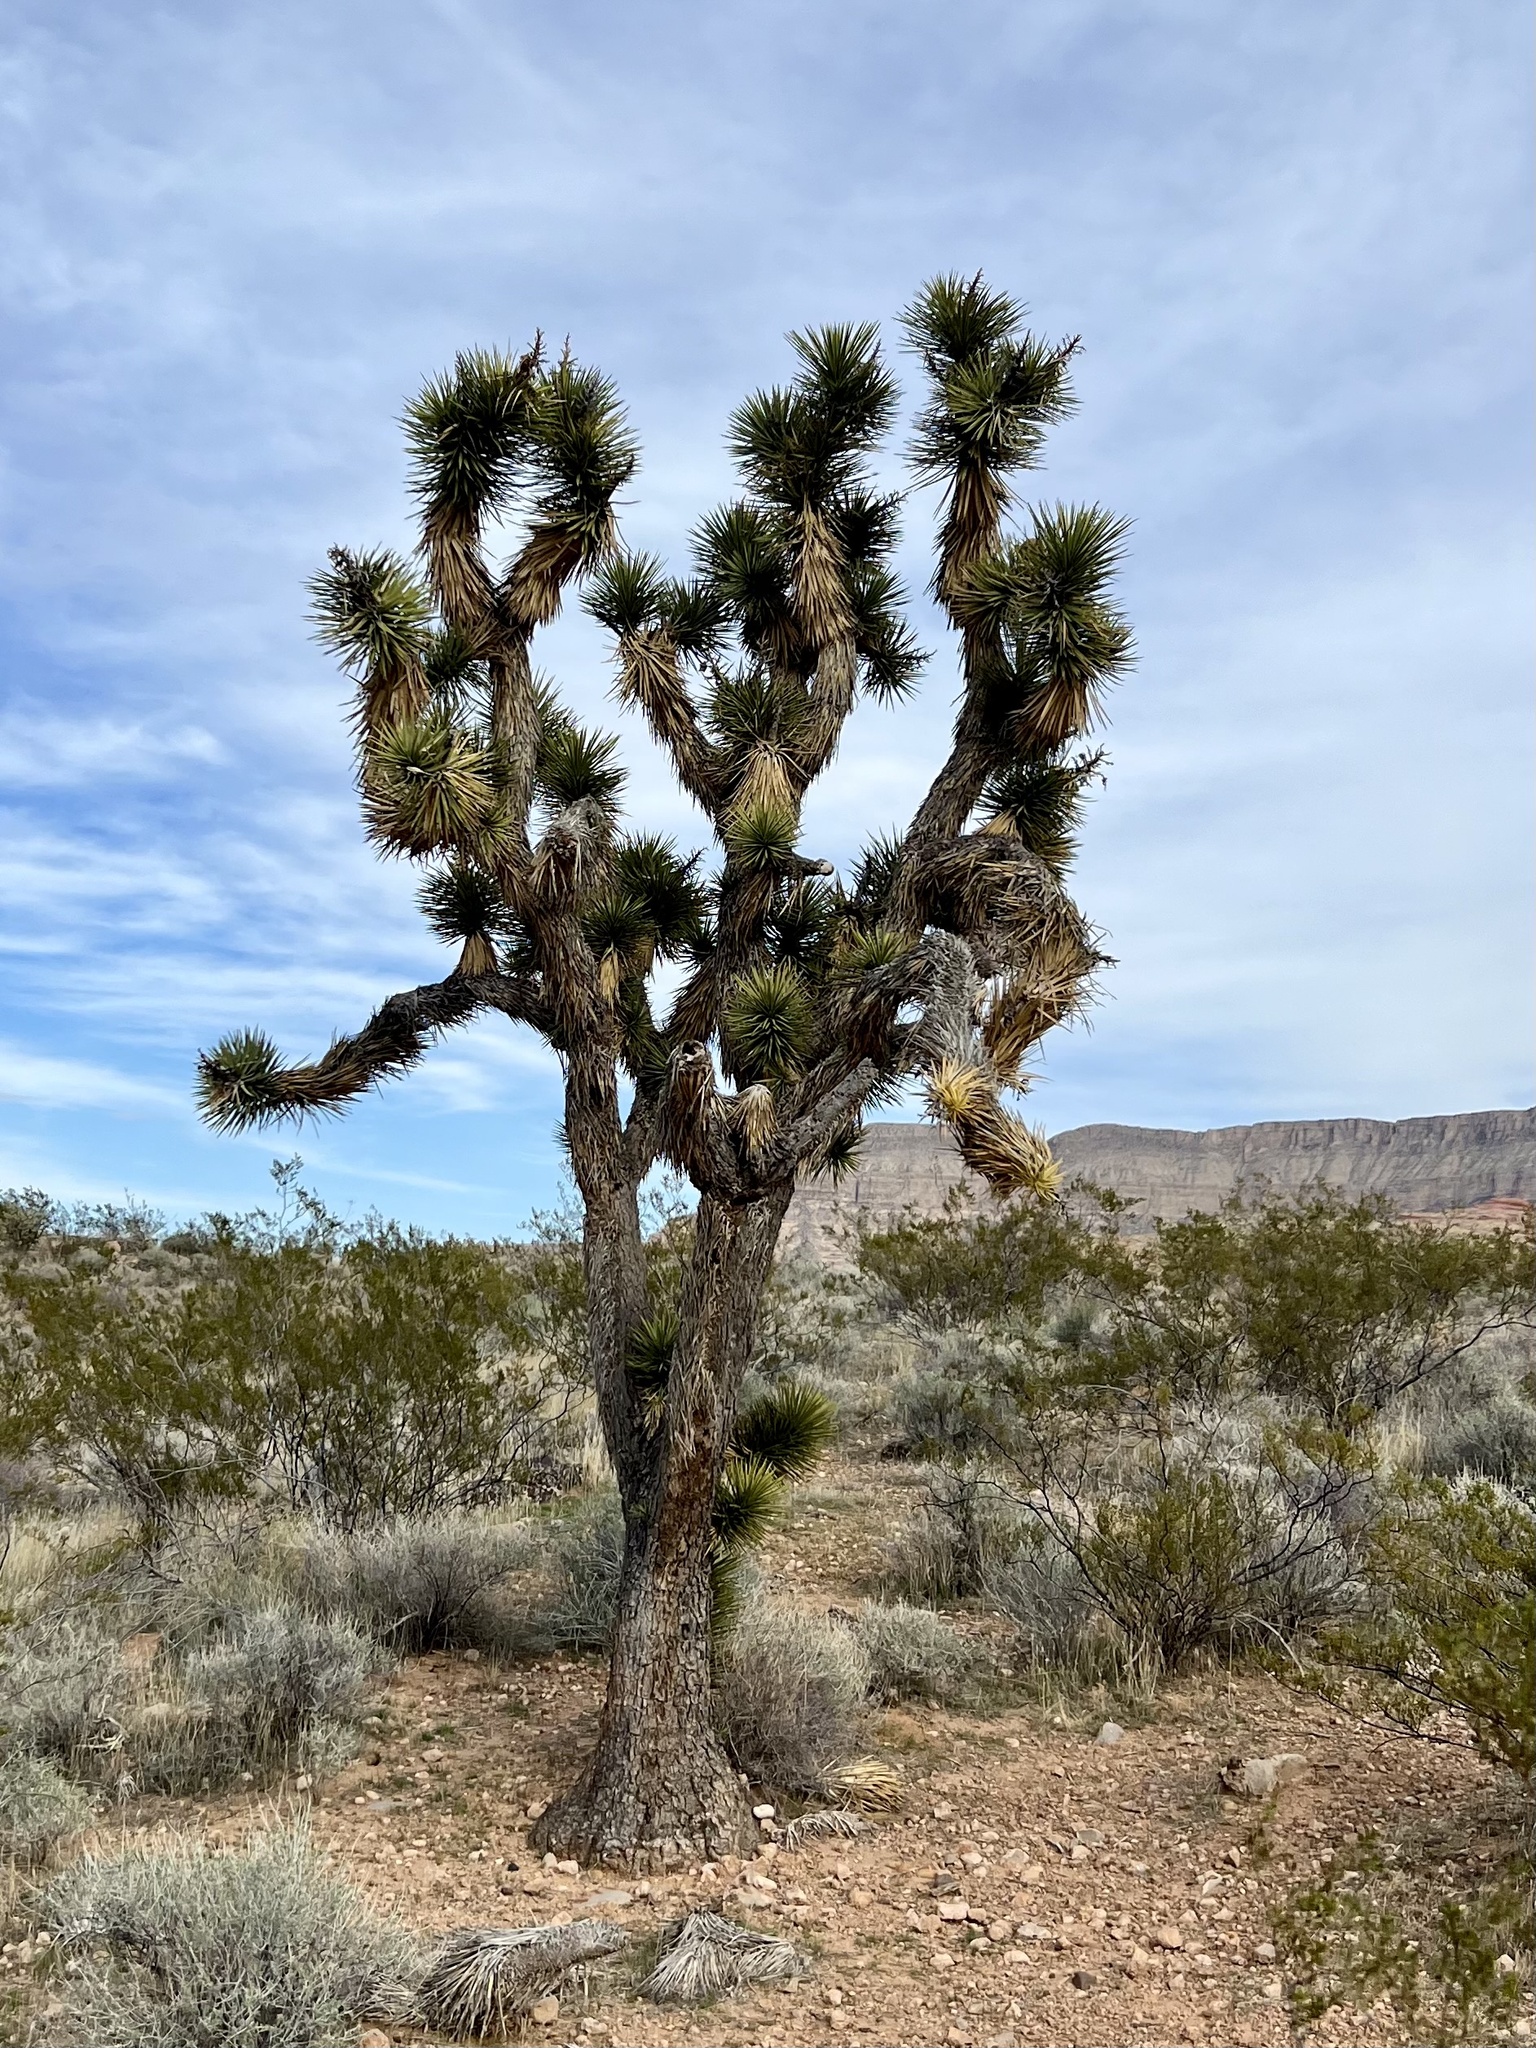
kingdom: Plantae
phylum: Tracheophyta
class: Liliopsida
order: Asparagales
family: Asparagaceae
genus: Yucca
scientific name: Yucca brevifolia
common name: Joshua tree
